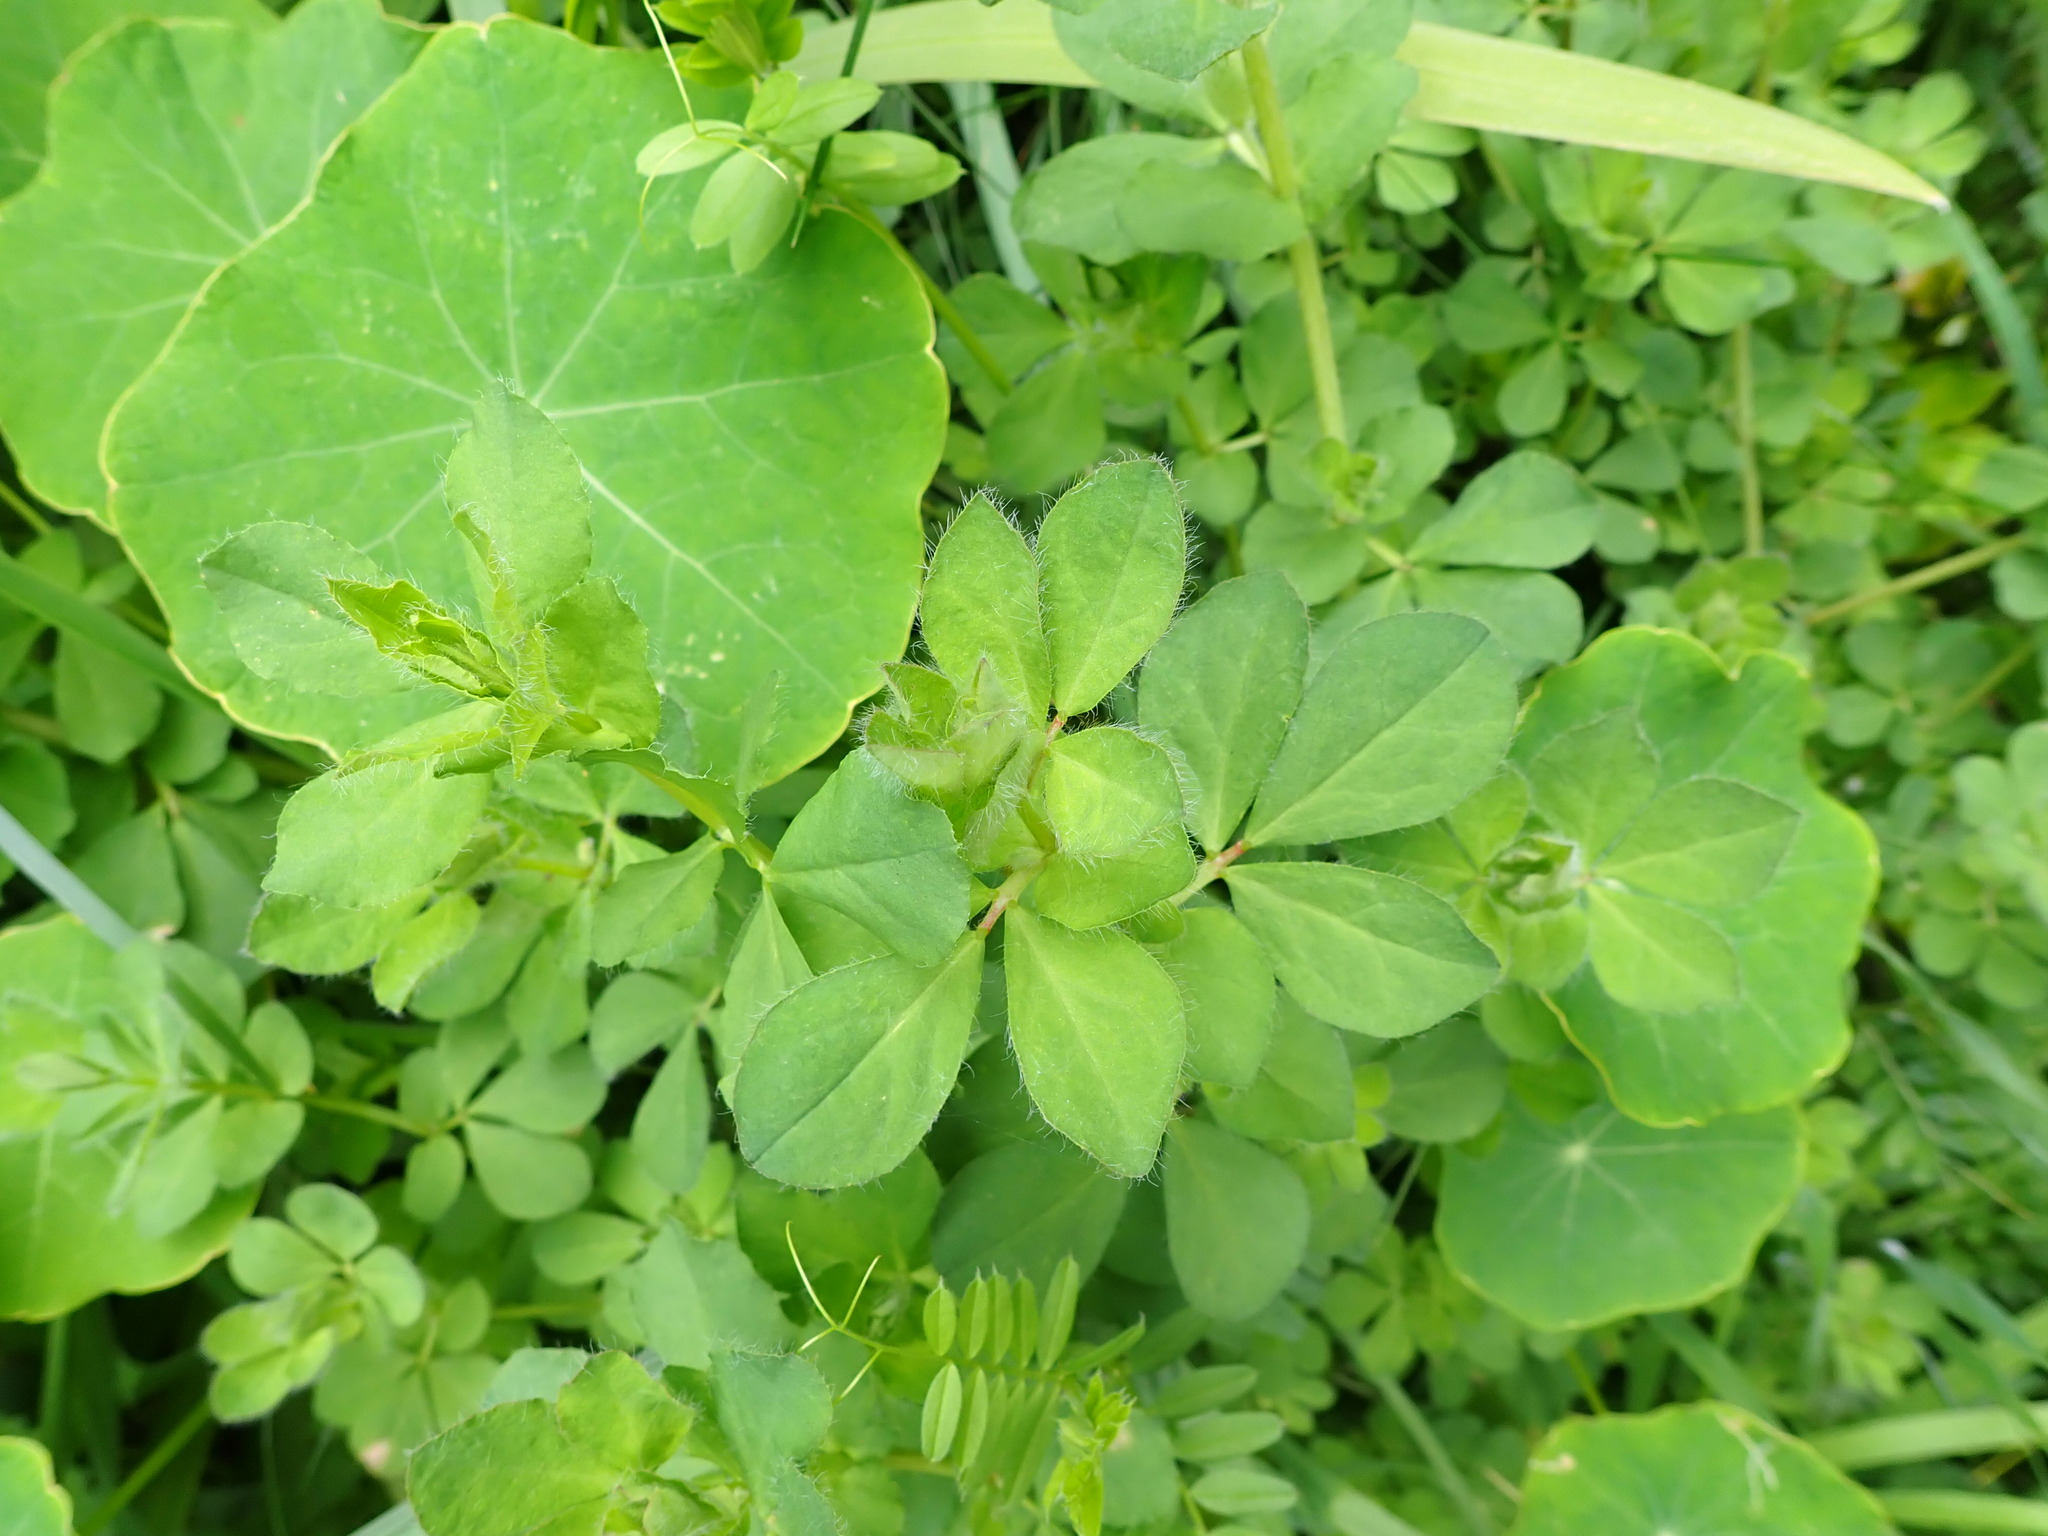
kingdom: Plantae
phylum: Tracheophyta
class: Magnoliopsida
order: Fabales
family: Fabaceae
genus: Lotus
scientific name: Lotus pedunculatus
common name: Greater birdsfoot-trefoil
